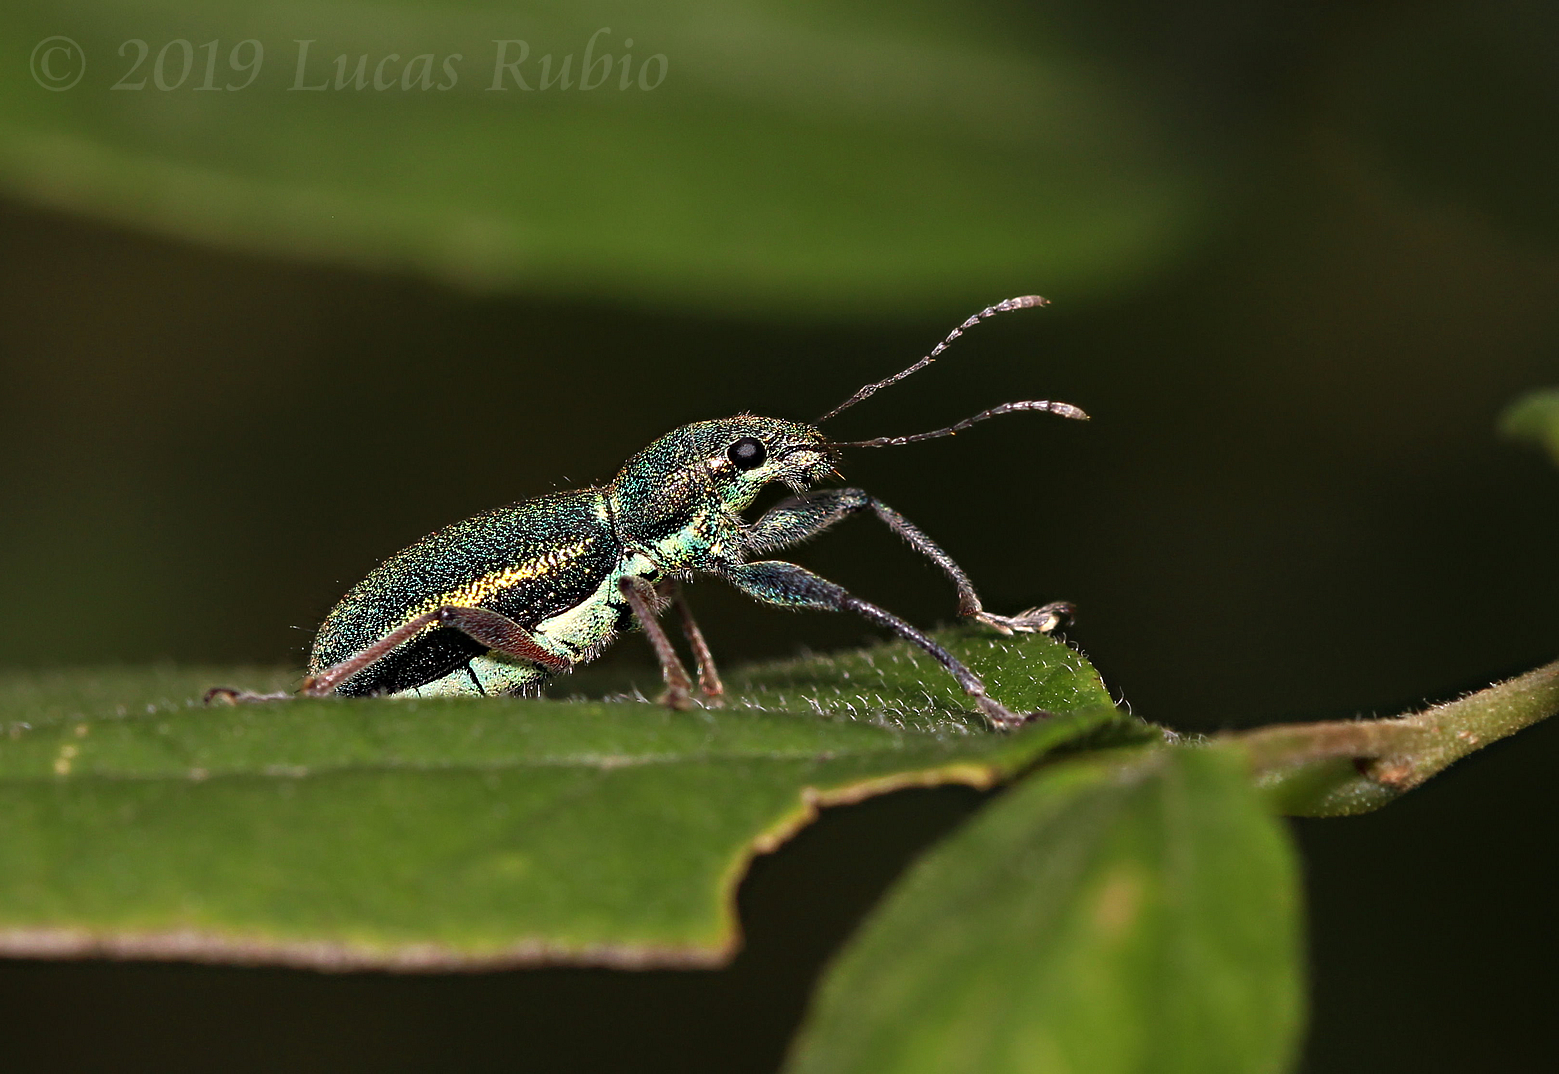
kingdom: Animalia
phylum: Arthropoda
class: Insecta
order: Coleoptera
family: Curculionidae
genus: Naupactus
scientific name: Naupactus auricinctus
